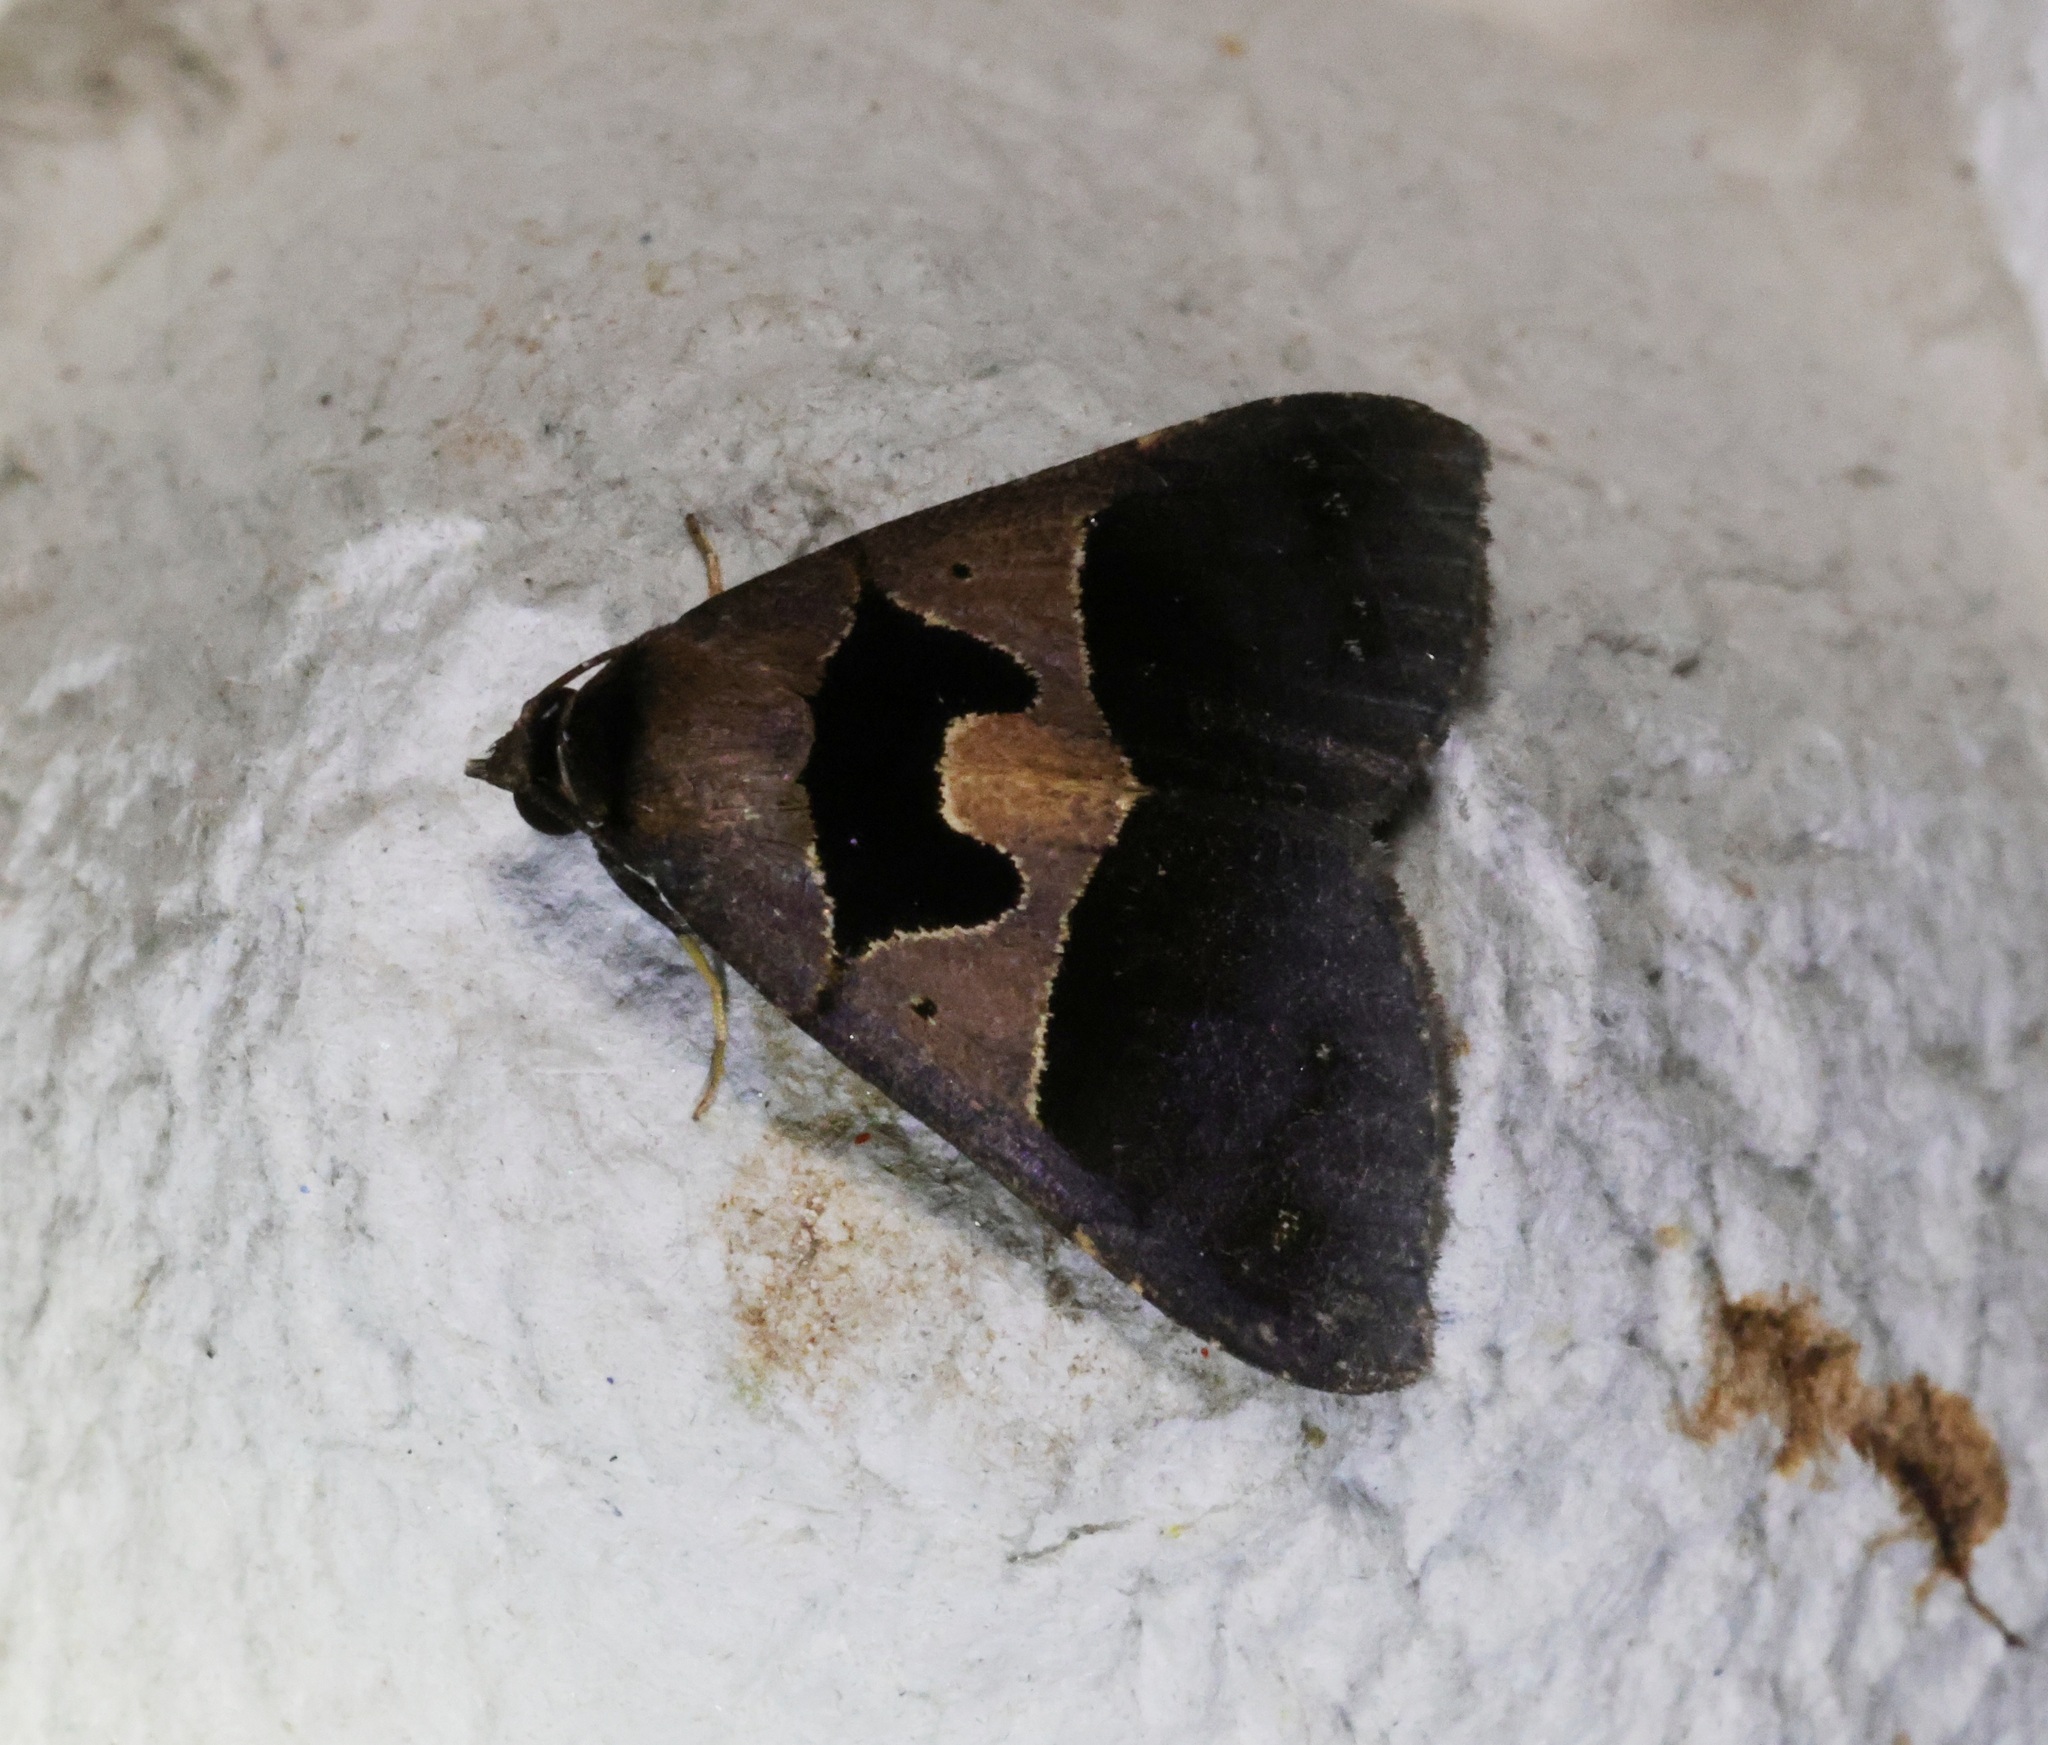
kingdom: Animalia
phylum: Arthropoda
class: Insecta
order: Lepidoptera
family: Erebidae
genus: Crithote
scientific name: Crithote pallivaga
